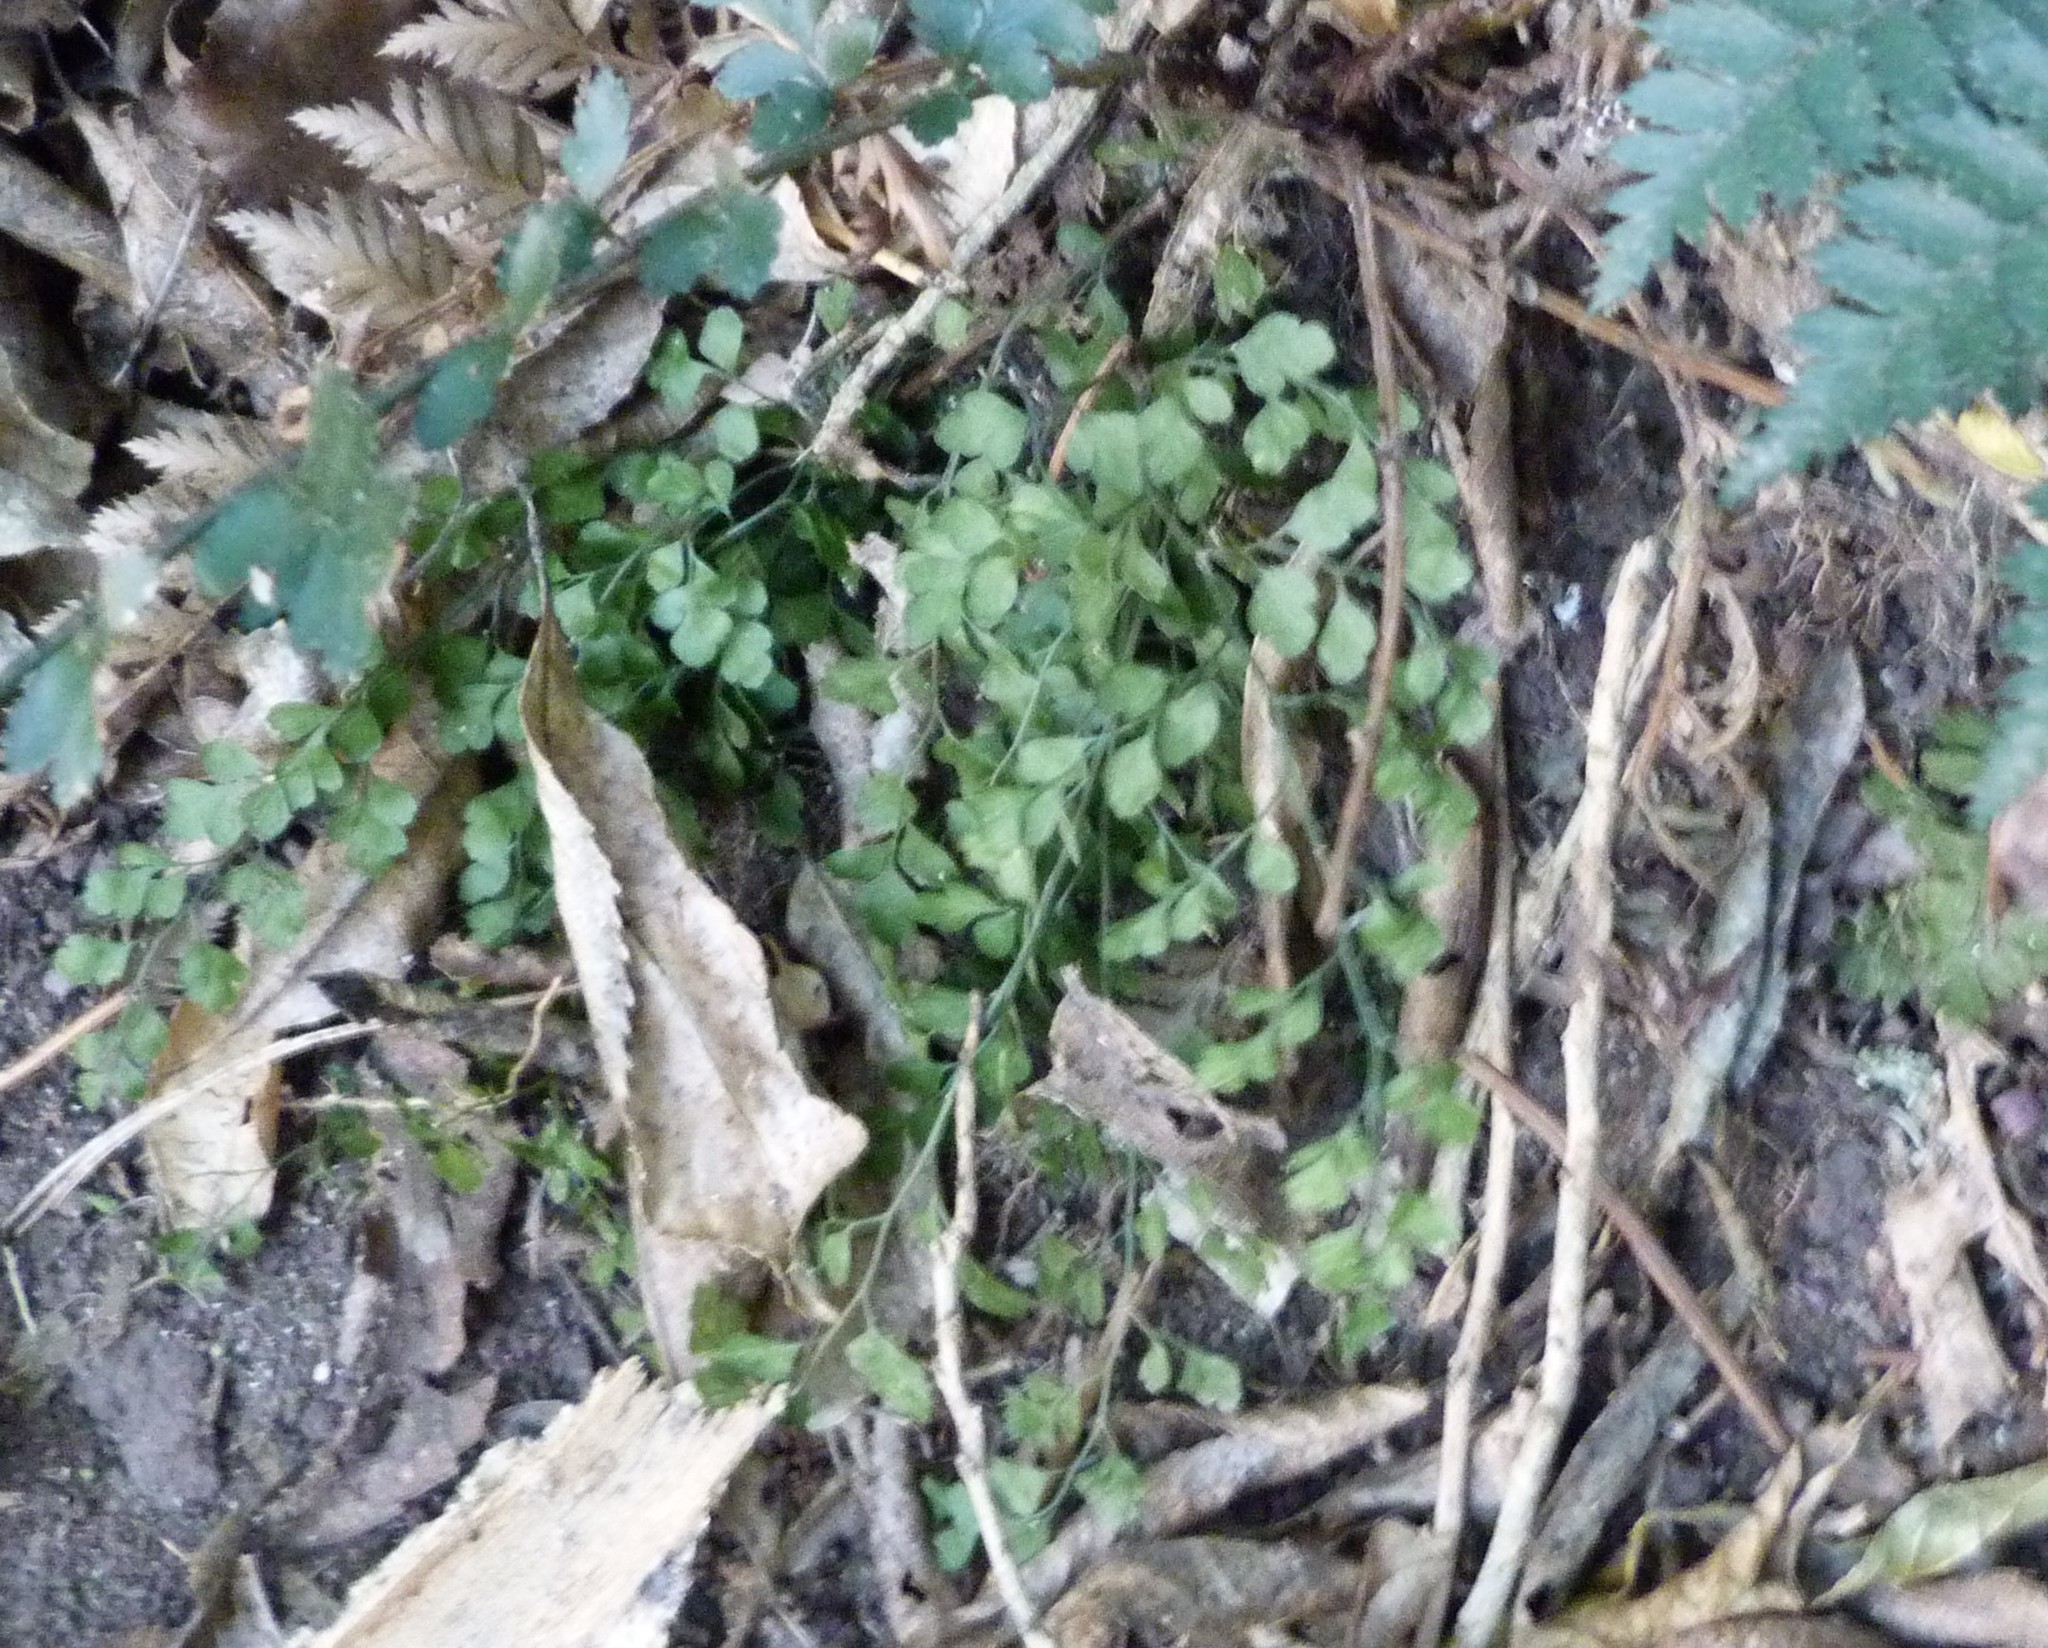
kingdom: Plantae
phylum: Tracheophyta
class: Polypodiopsida
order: Polypodiales
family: Aspleniaceae
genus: Asplenium
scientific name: Asplenium hookerianum
